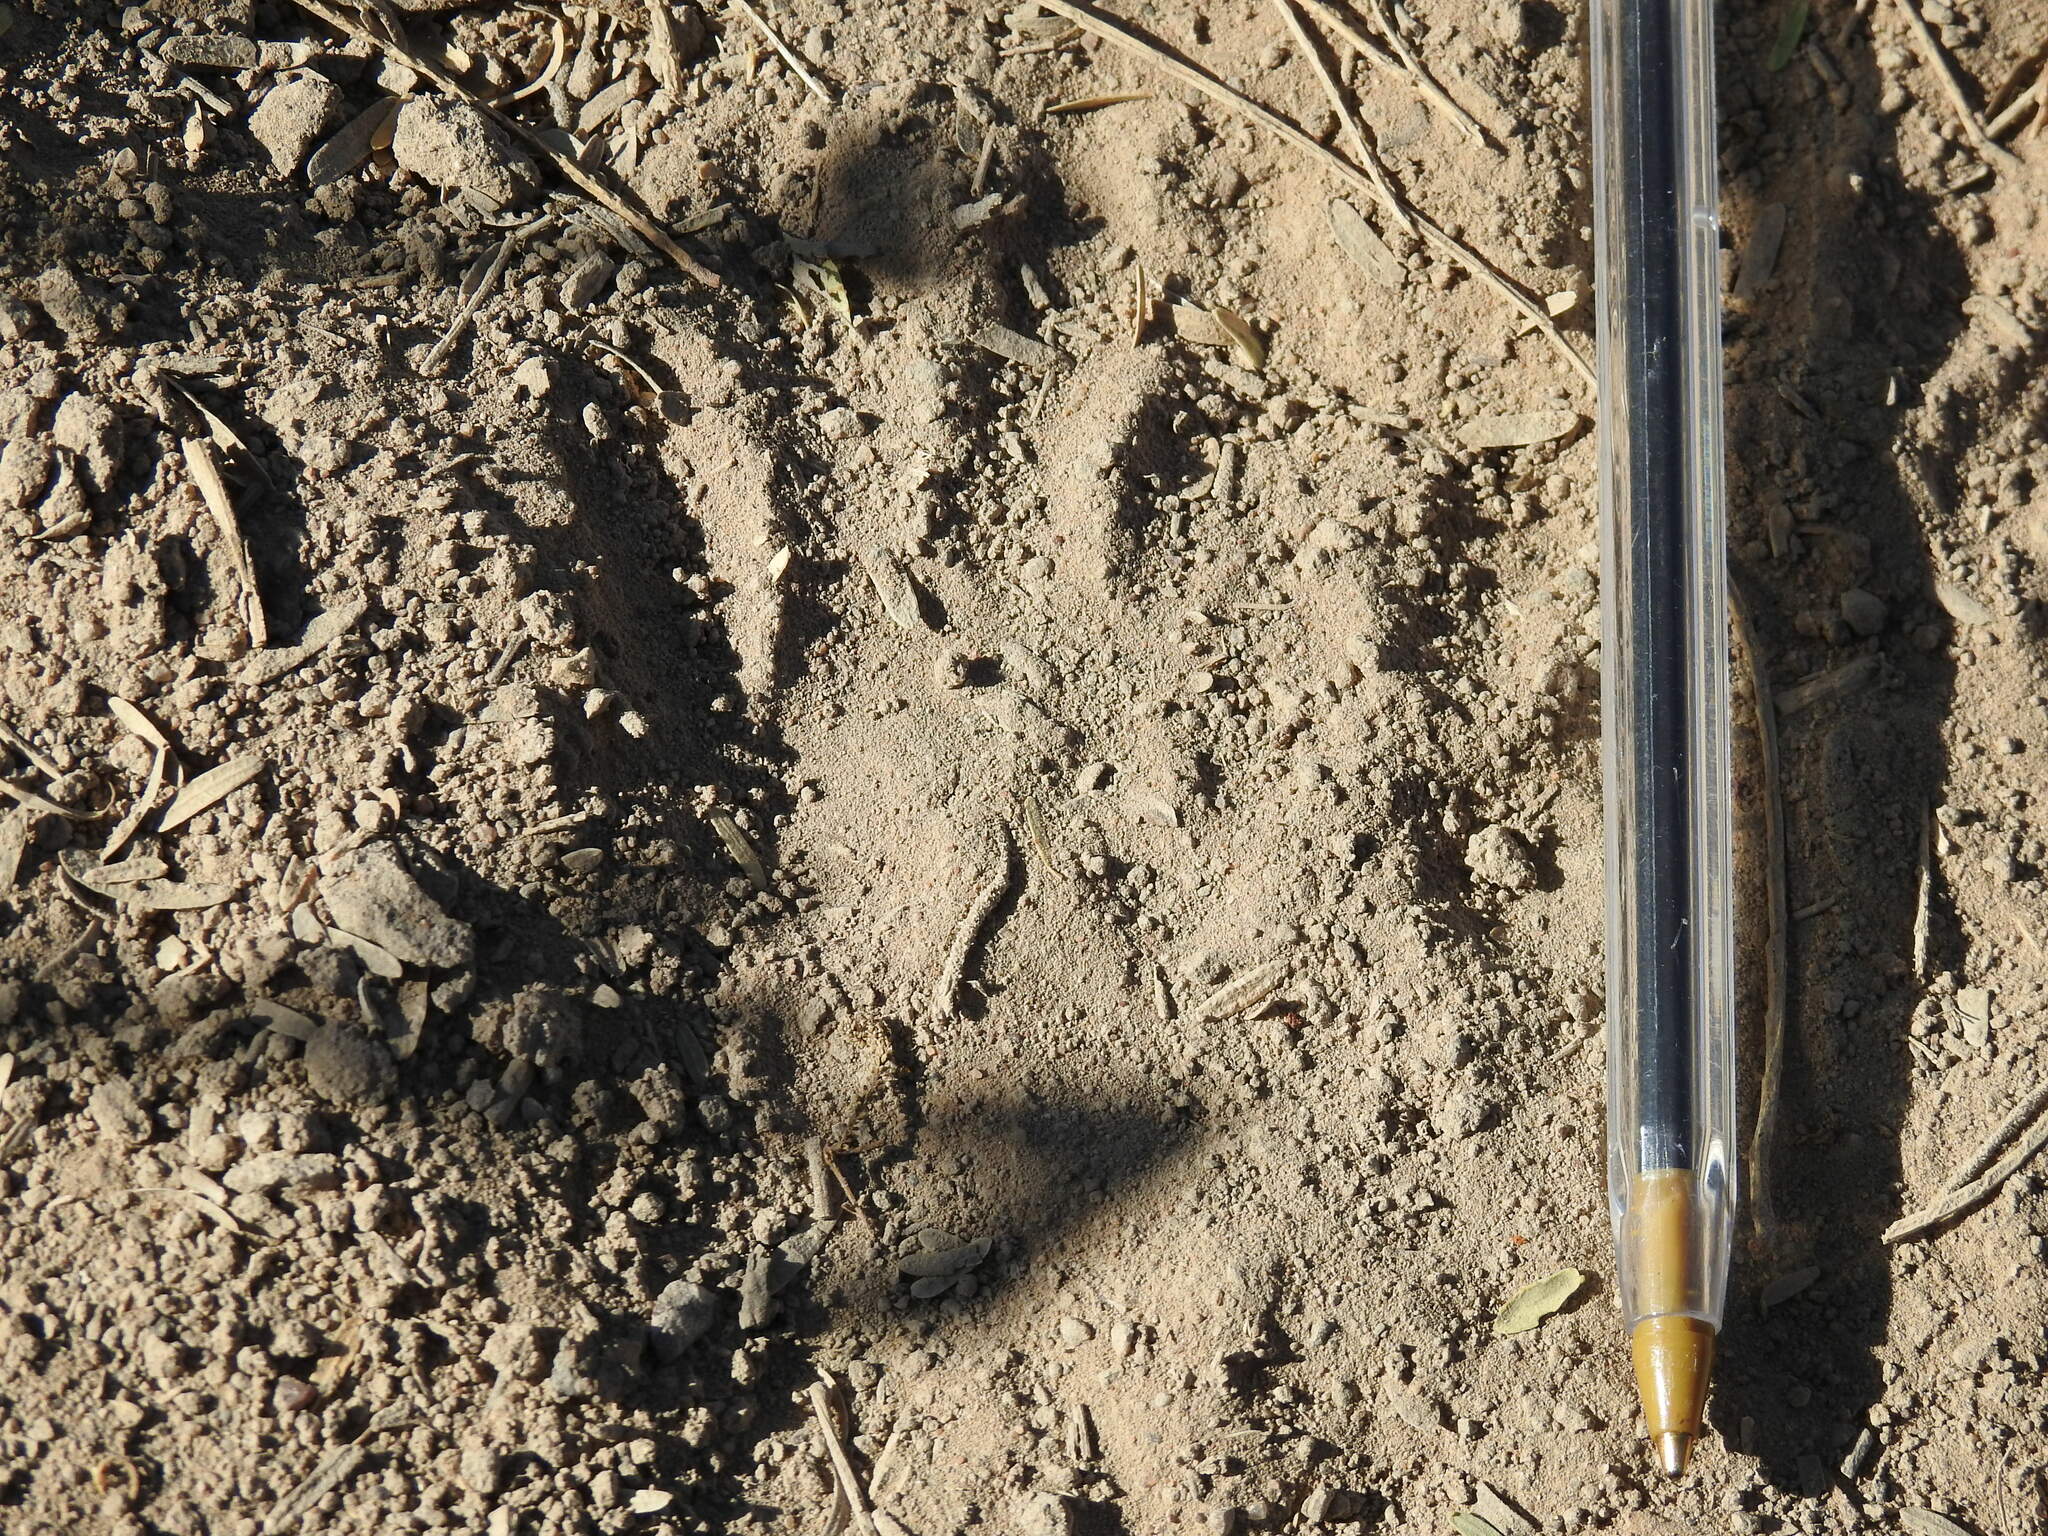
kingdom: Animalia
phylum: Chordata
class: Mammalia
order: Carnivora
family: Procyonidae
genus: Procyon
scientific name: Procyon lotor
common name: Raccoon
